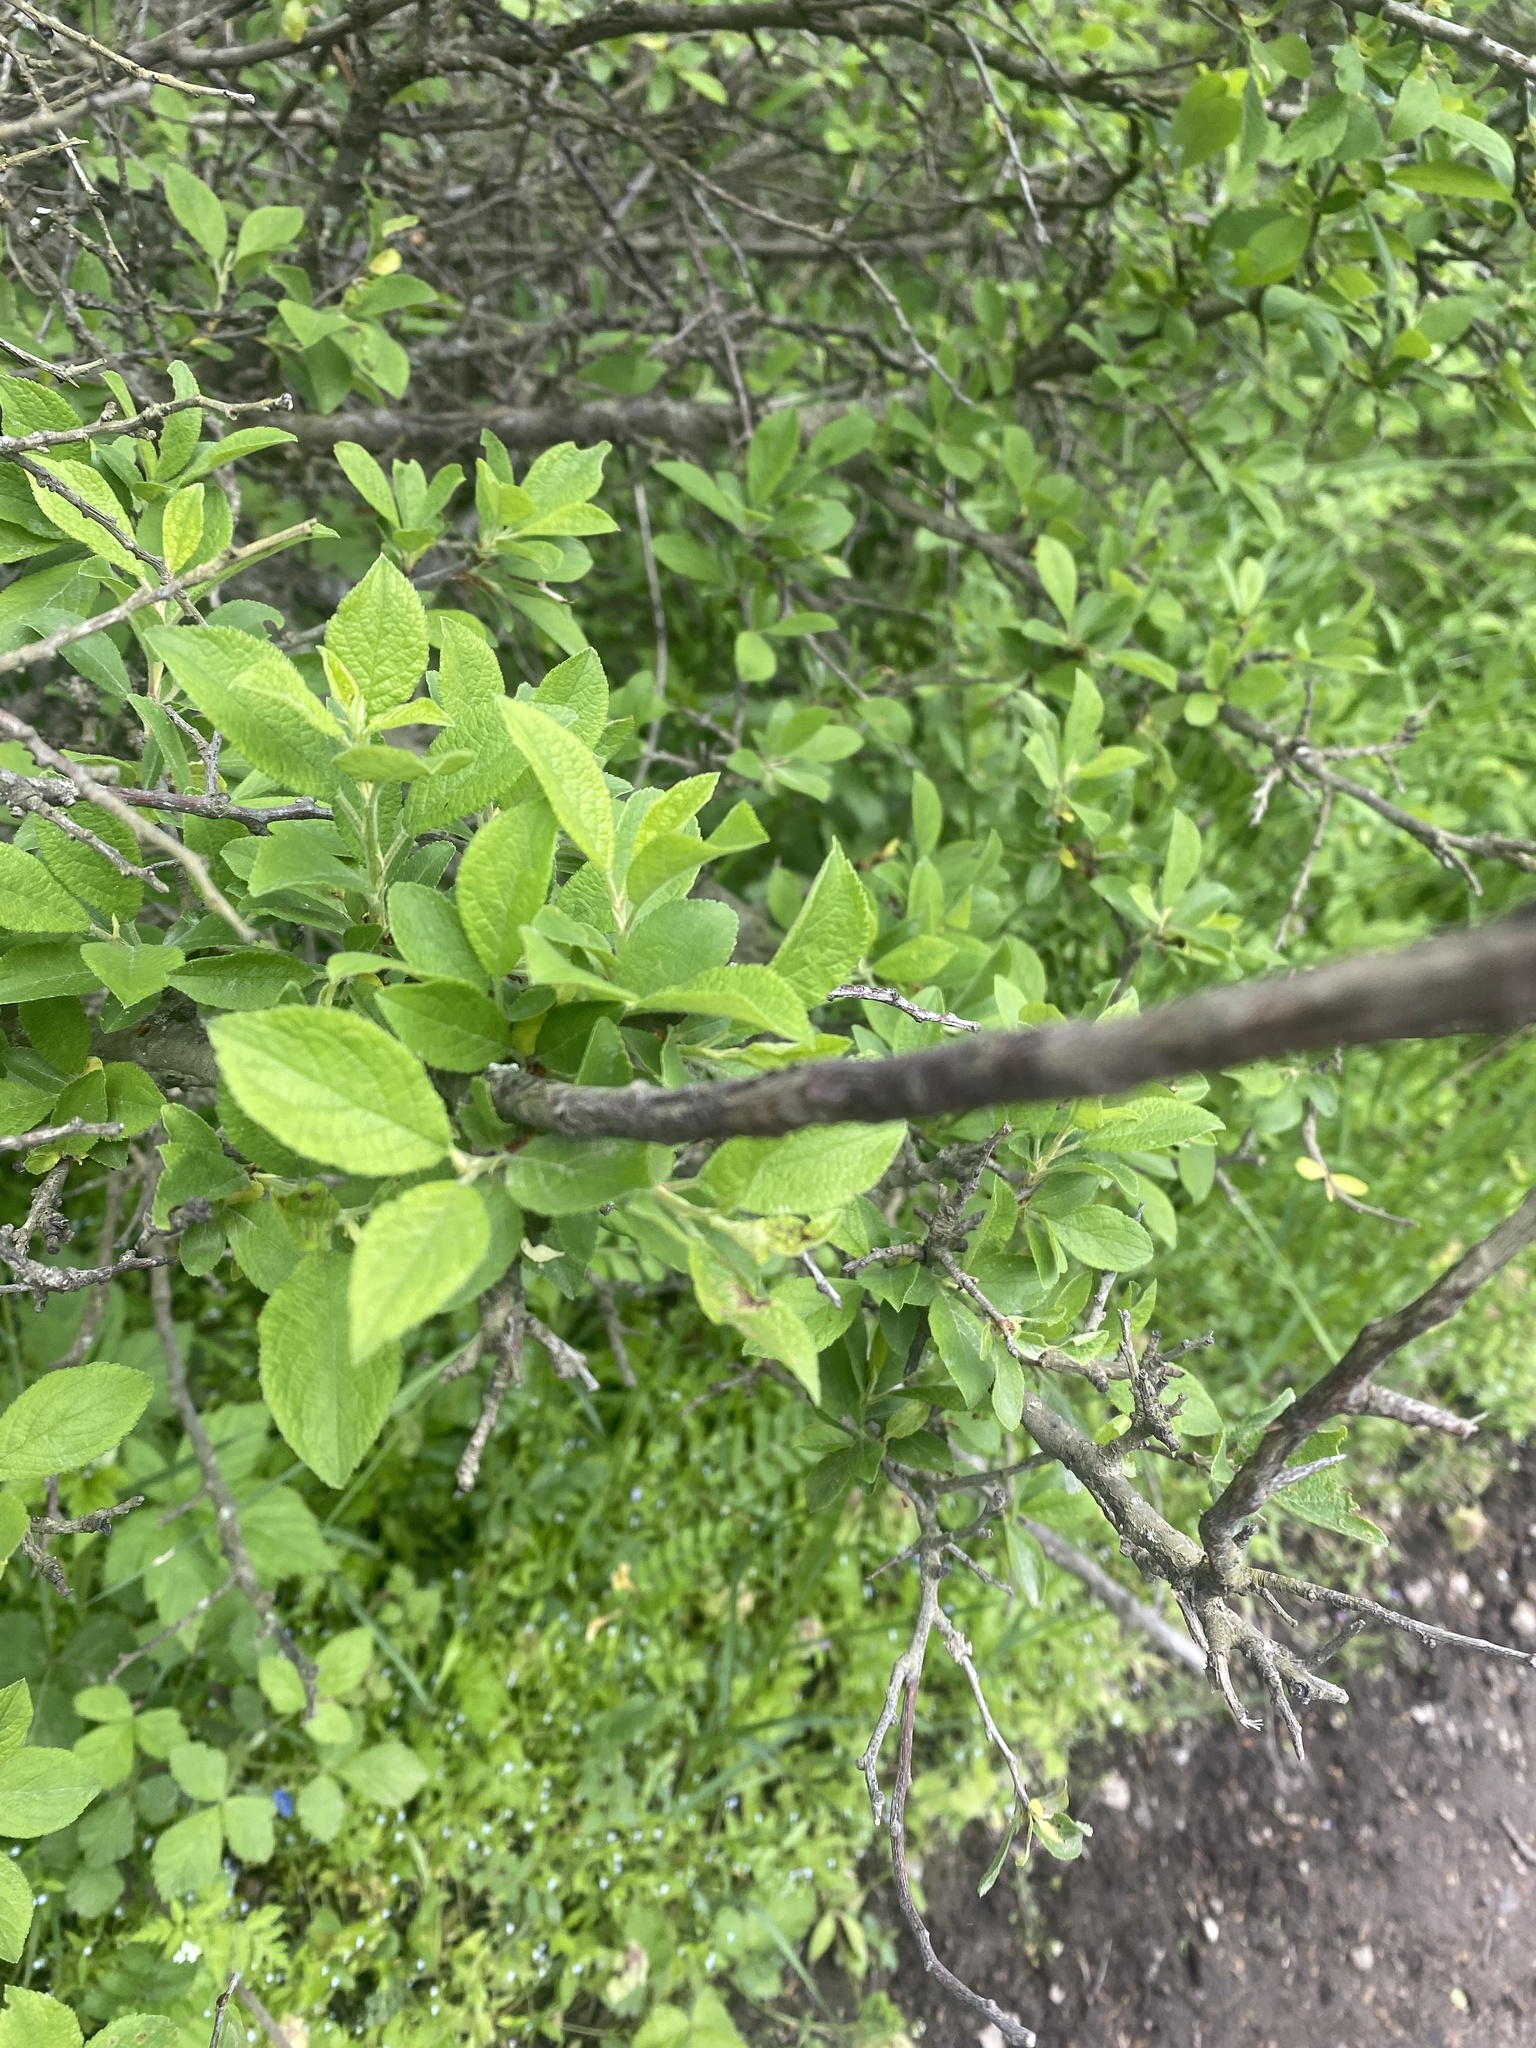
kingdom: Plantae
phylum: Tracheophyta
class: Magnoliopsida
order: Rosales
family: Rosaceae
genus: Prunus
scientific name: Prunus spinosa
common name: Blackthorn
